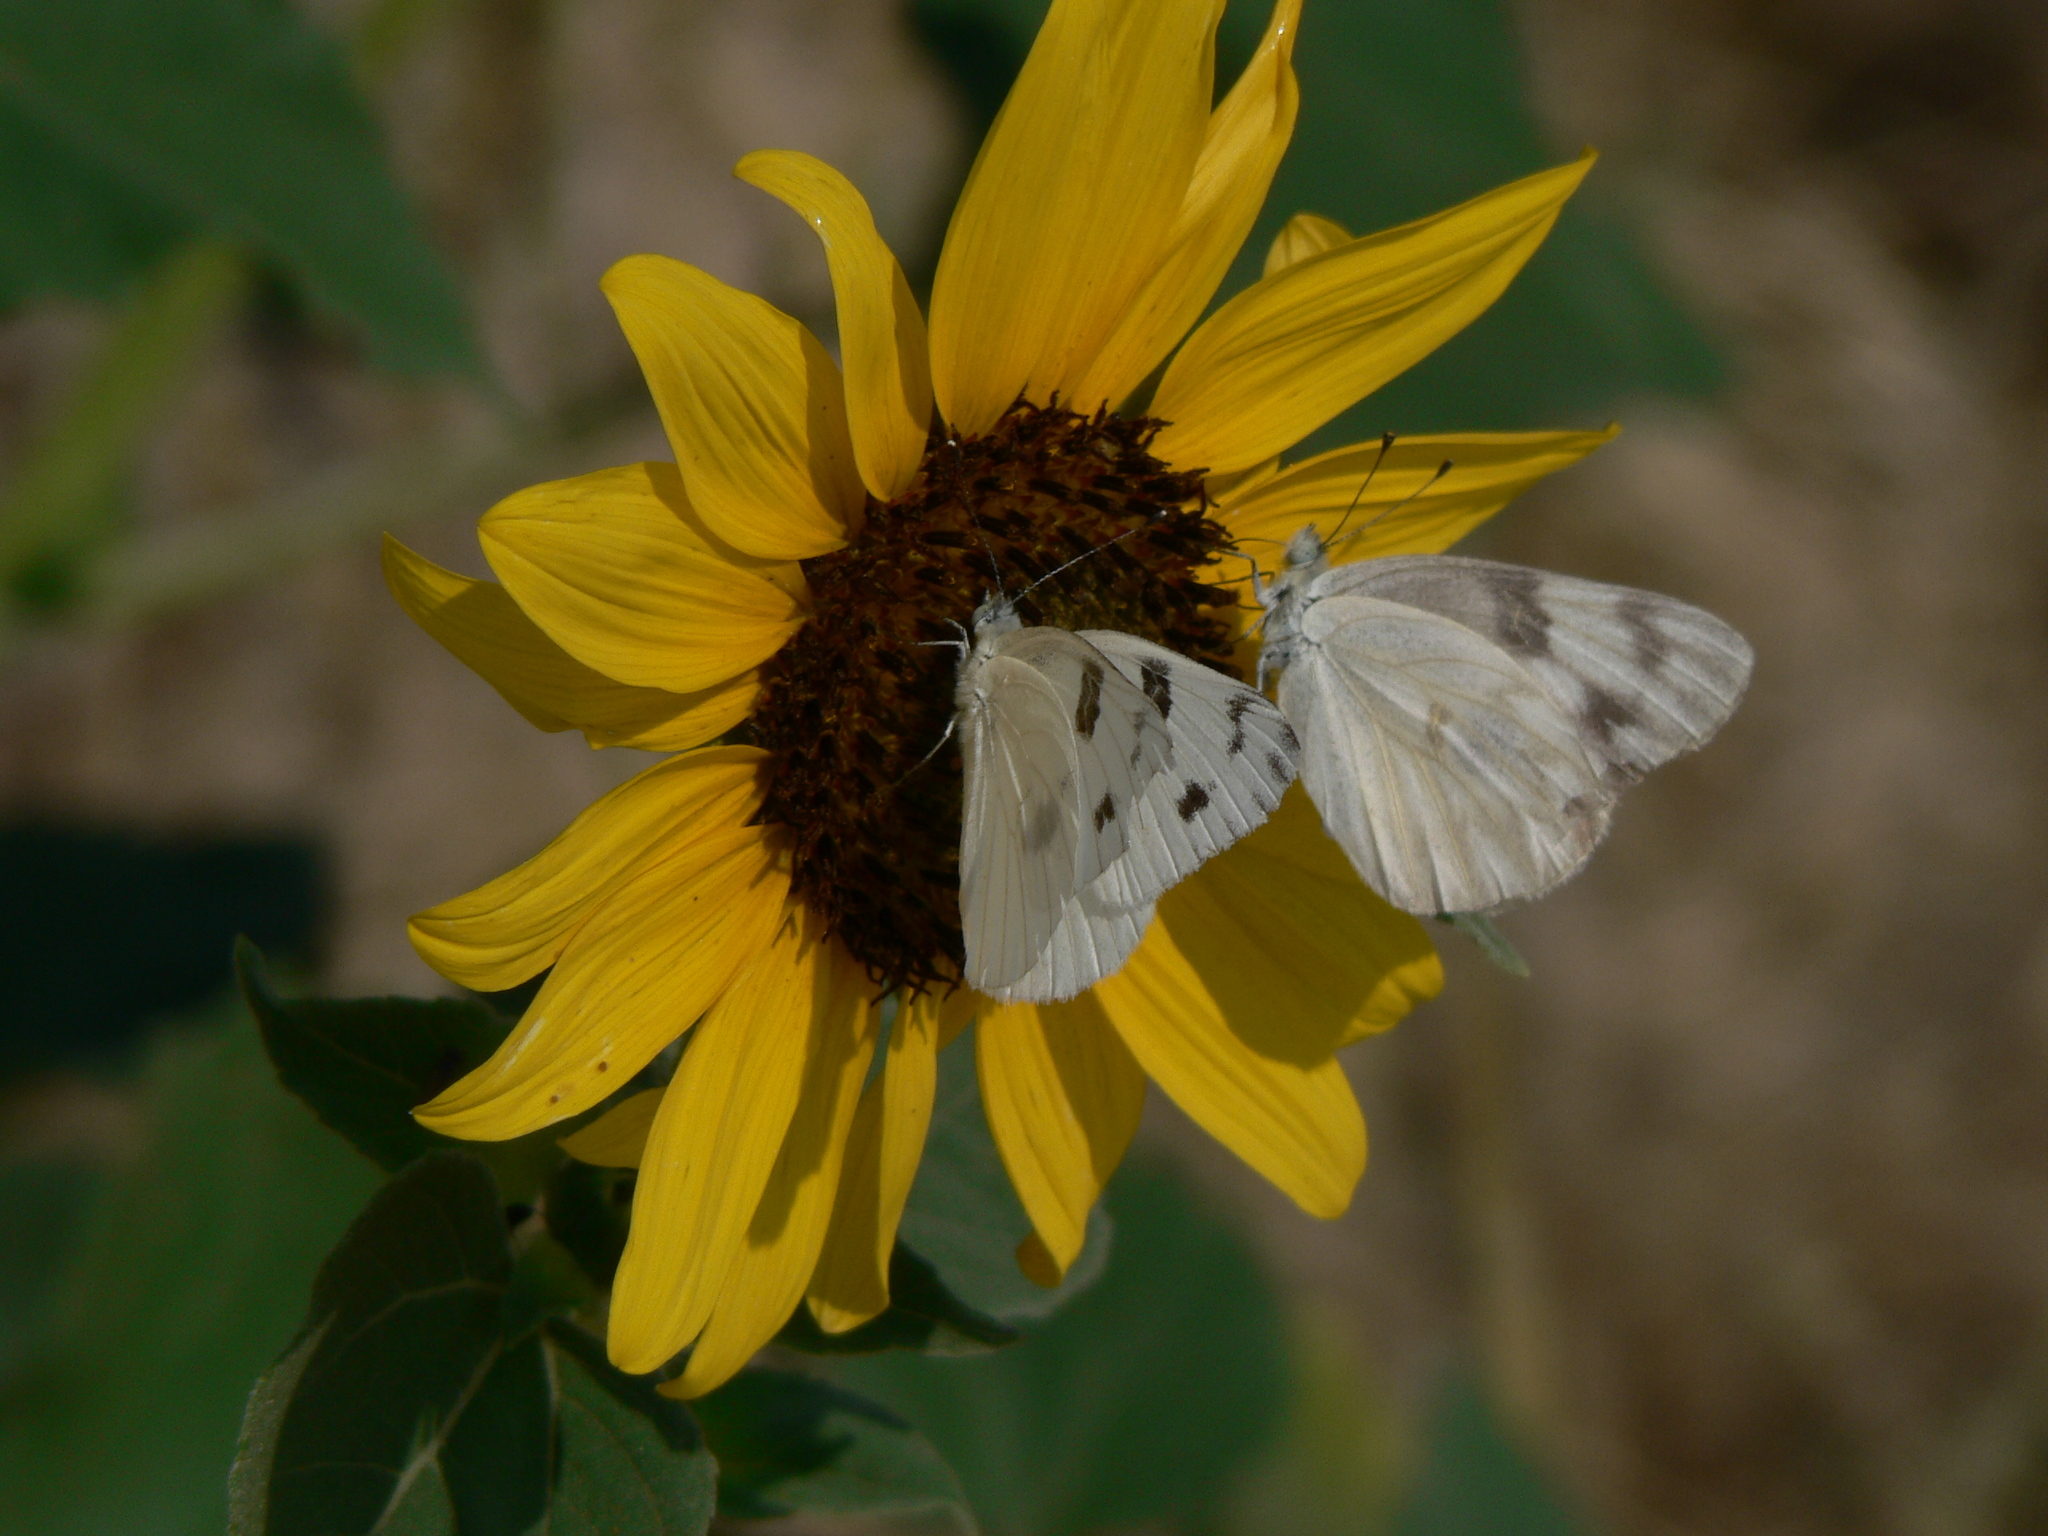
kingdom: Animalia
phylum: Arthropoda
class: Insecta
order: Lepidoptera
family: Pieridae
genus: Pontia
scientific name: Pontia protodice
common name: Checkered white
